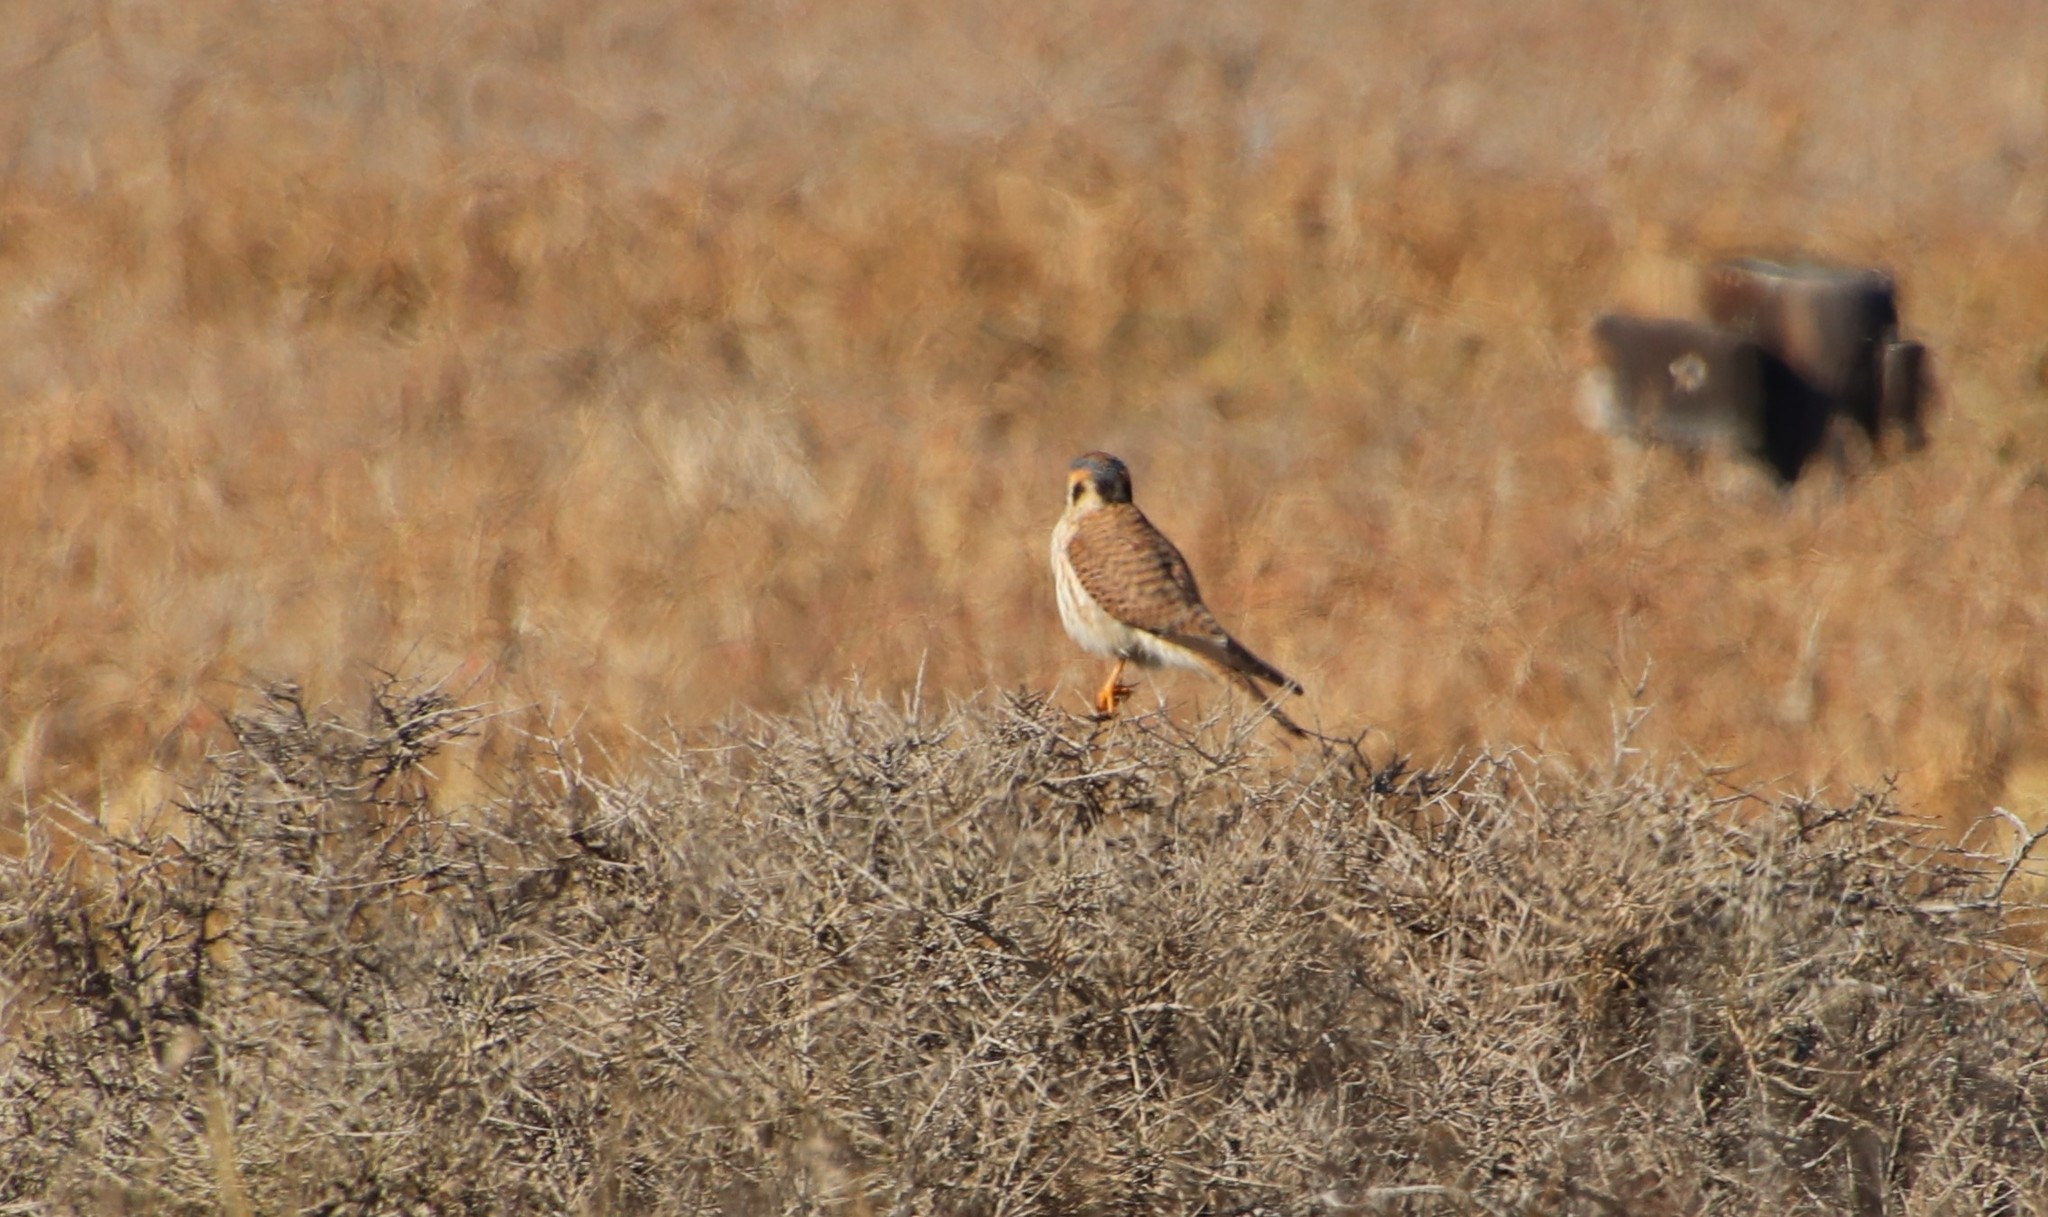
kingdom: Animalia
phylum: Chordata
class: Aves
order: Falconiformes
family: Falconidae
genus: Falco
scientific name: Falco sparverius
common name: American kestrel
